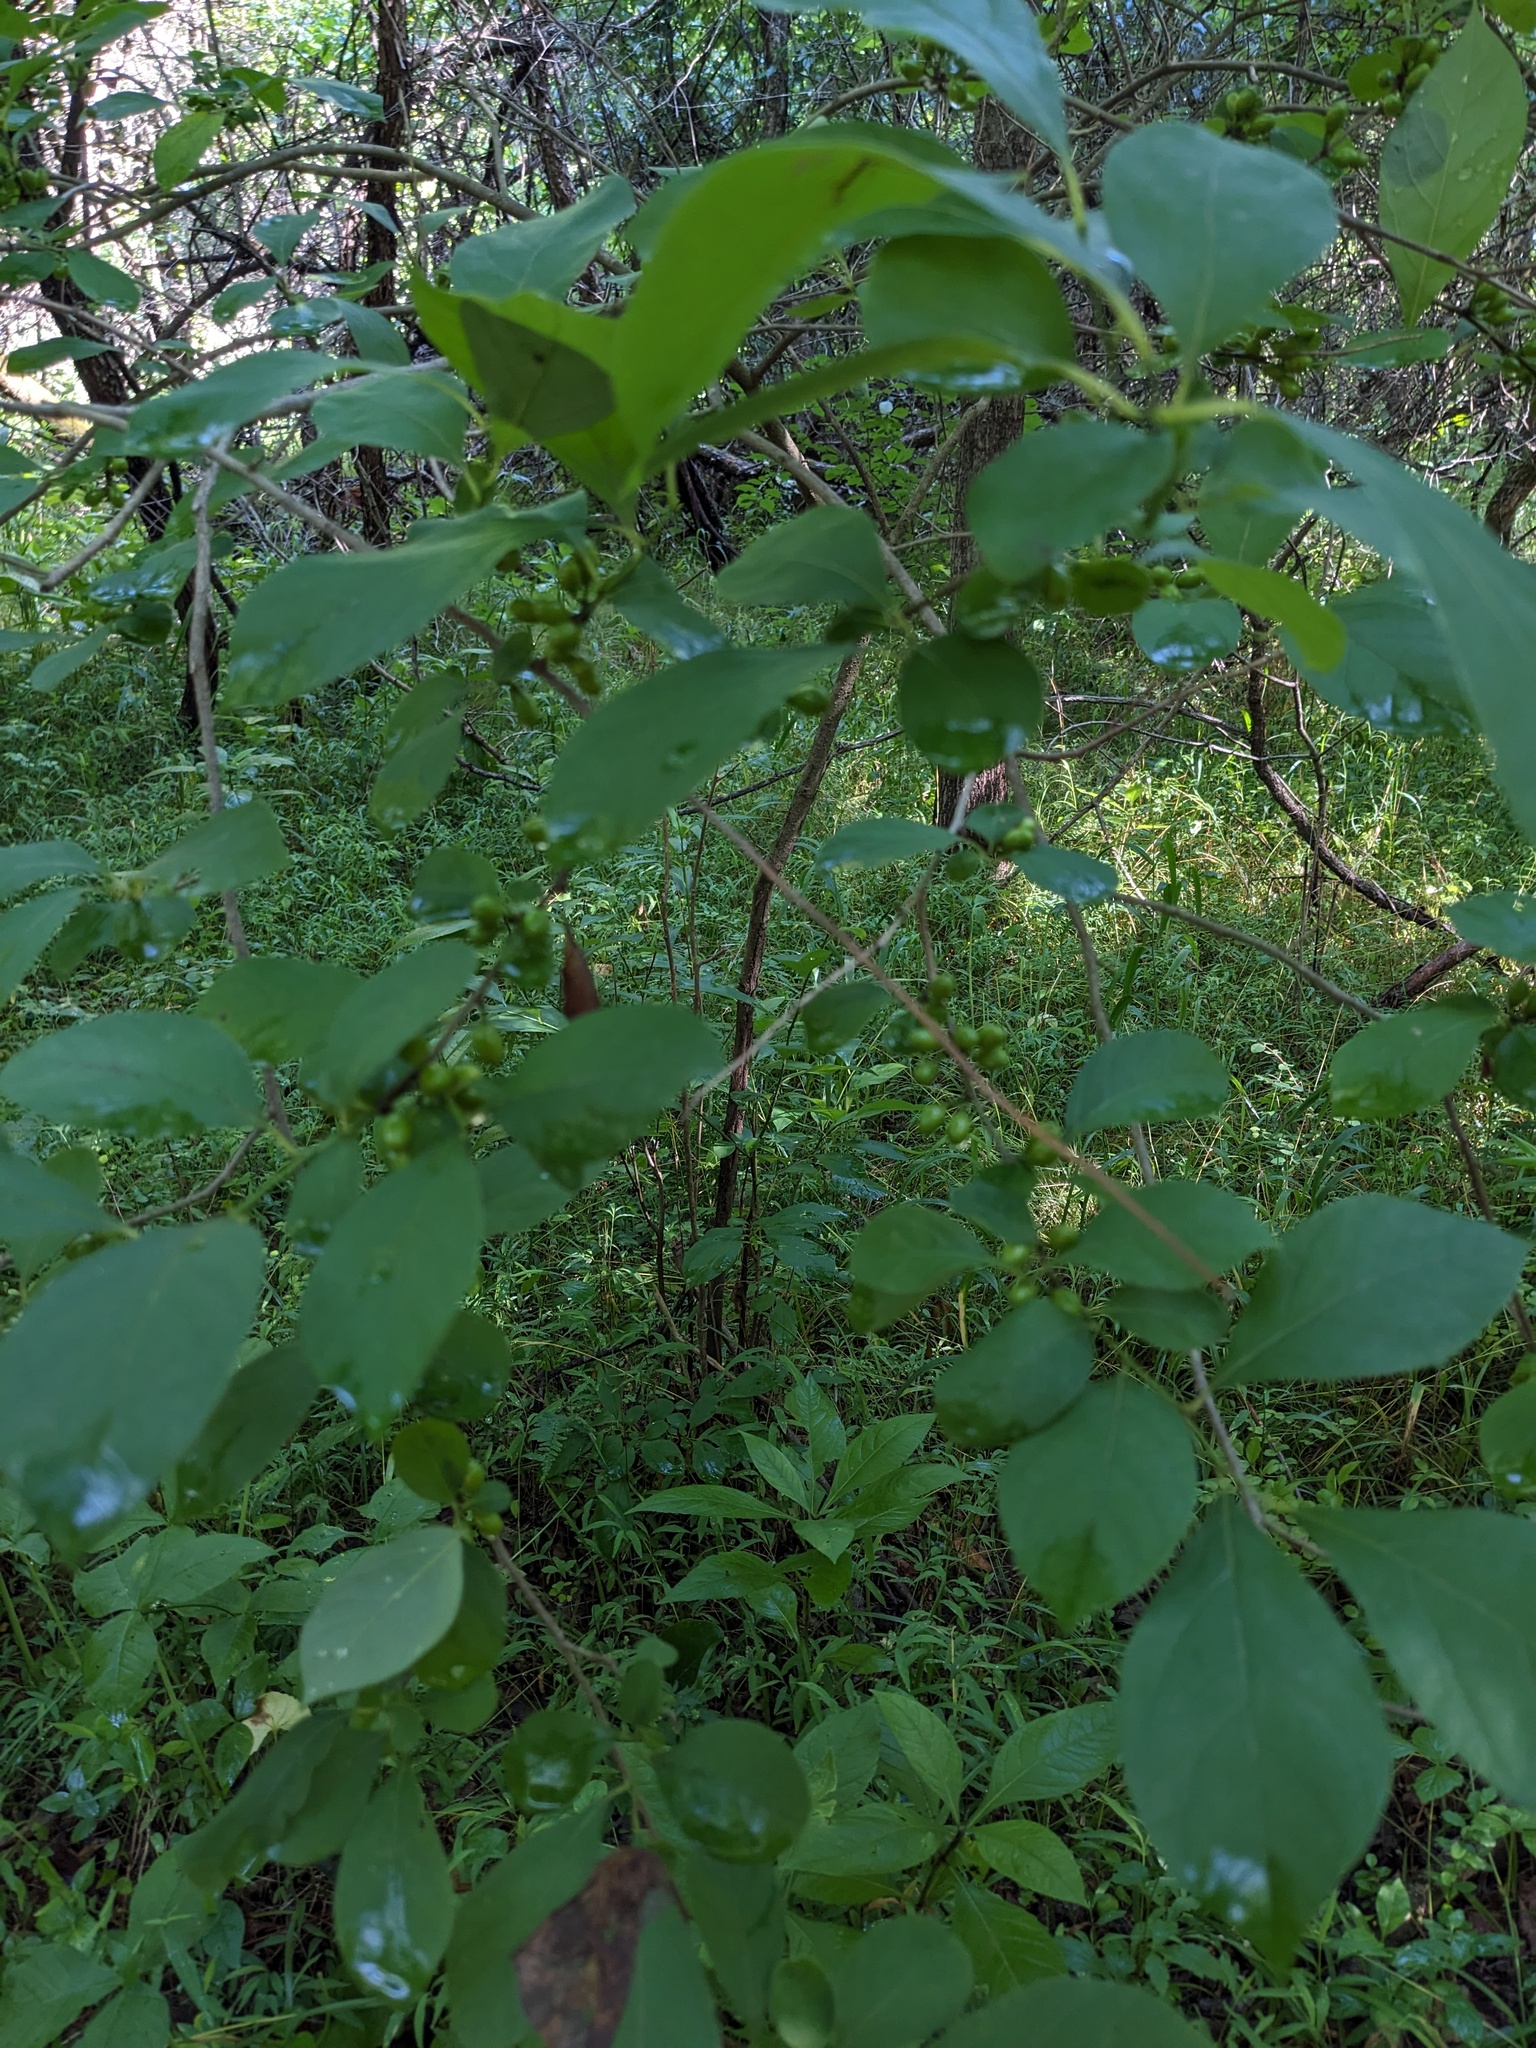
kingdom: Plantae
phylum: Tracheophyta
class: Magnoliopsida
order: Laurales
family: Lauraceae
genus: Lindera
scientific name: Lindera benzoin
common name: Spicebush
